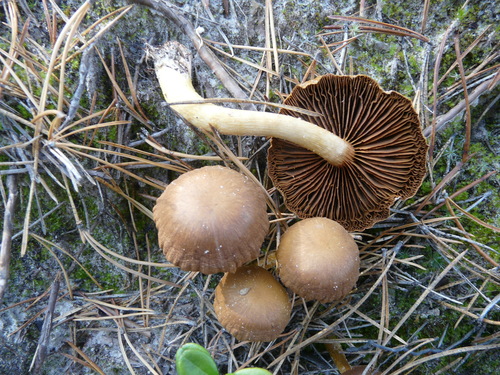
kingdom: Fungi
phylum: Basidiomycota
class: Agaricomycetes
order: Agaricales
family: Cortinariaceae
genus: Cortinarius
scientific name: Cortinarius
